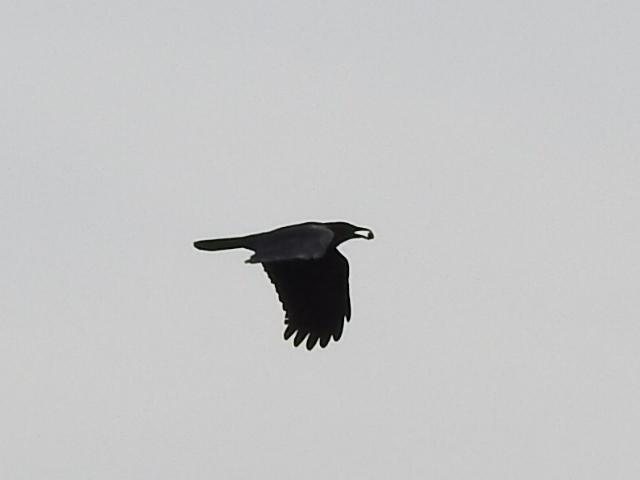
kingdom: Animalia
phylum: Chordata
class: Aves
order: Passeriformes
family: Corvidae
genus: Corvus
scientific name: Corvus brachyrhynchos
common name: American crow
